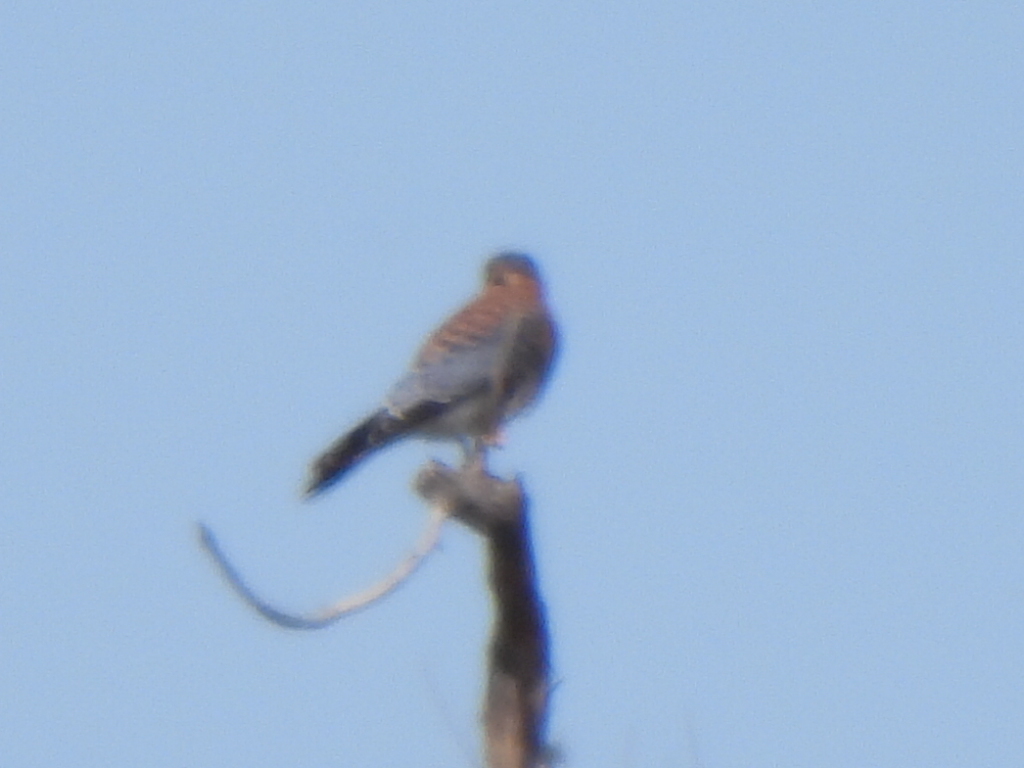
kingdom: Animalia
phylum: Chordata
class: Aves
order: Falconiformes
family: Falconidae
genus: Falco
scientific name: Falco sparverius
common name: American kestrel
